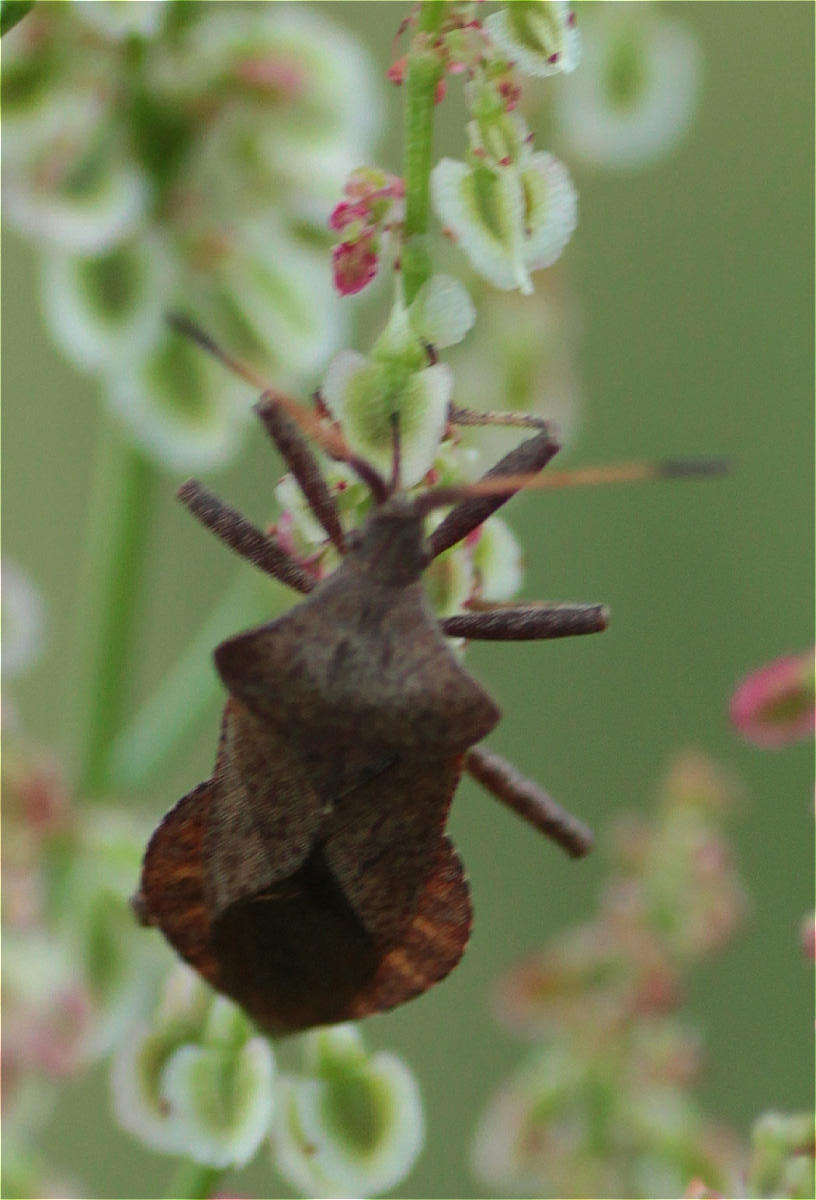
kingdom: Animalia
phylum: Arthropoda
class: Insecta
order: Hemiptera
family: Coreidae
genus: Coreus
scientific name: Coreus marginatus
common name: Dock bug
